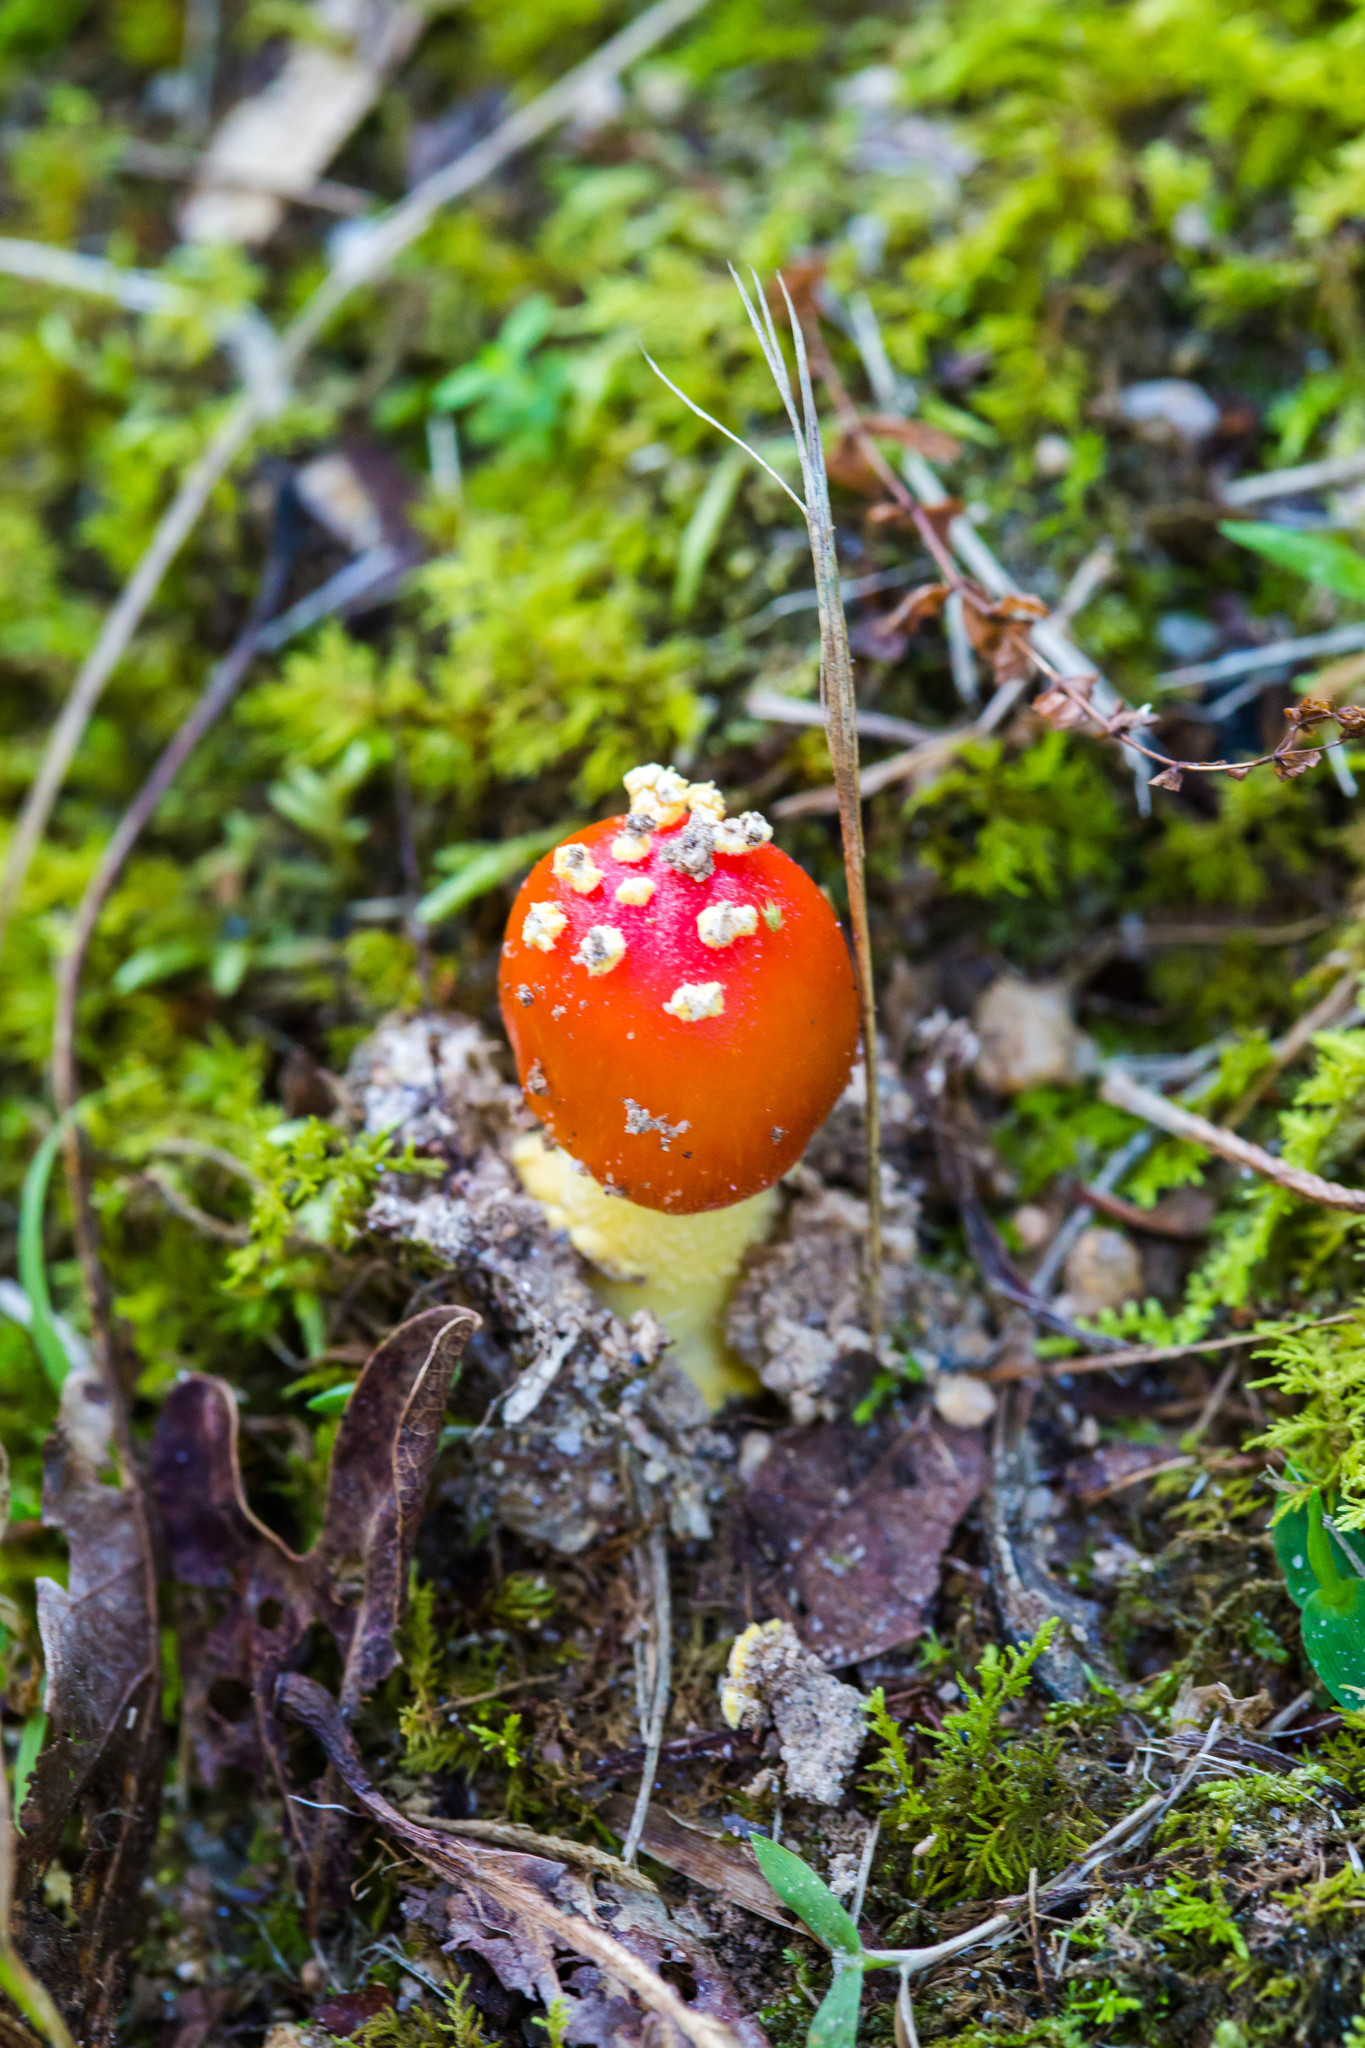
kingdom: Fungi
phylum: Basidiomycota
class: Agaricomycetes
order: Agaricales
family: Amanitaceae
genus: Amanita
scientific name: Amanita parcivolvata
